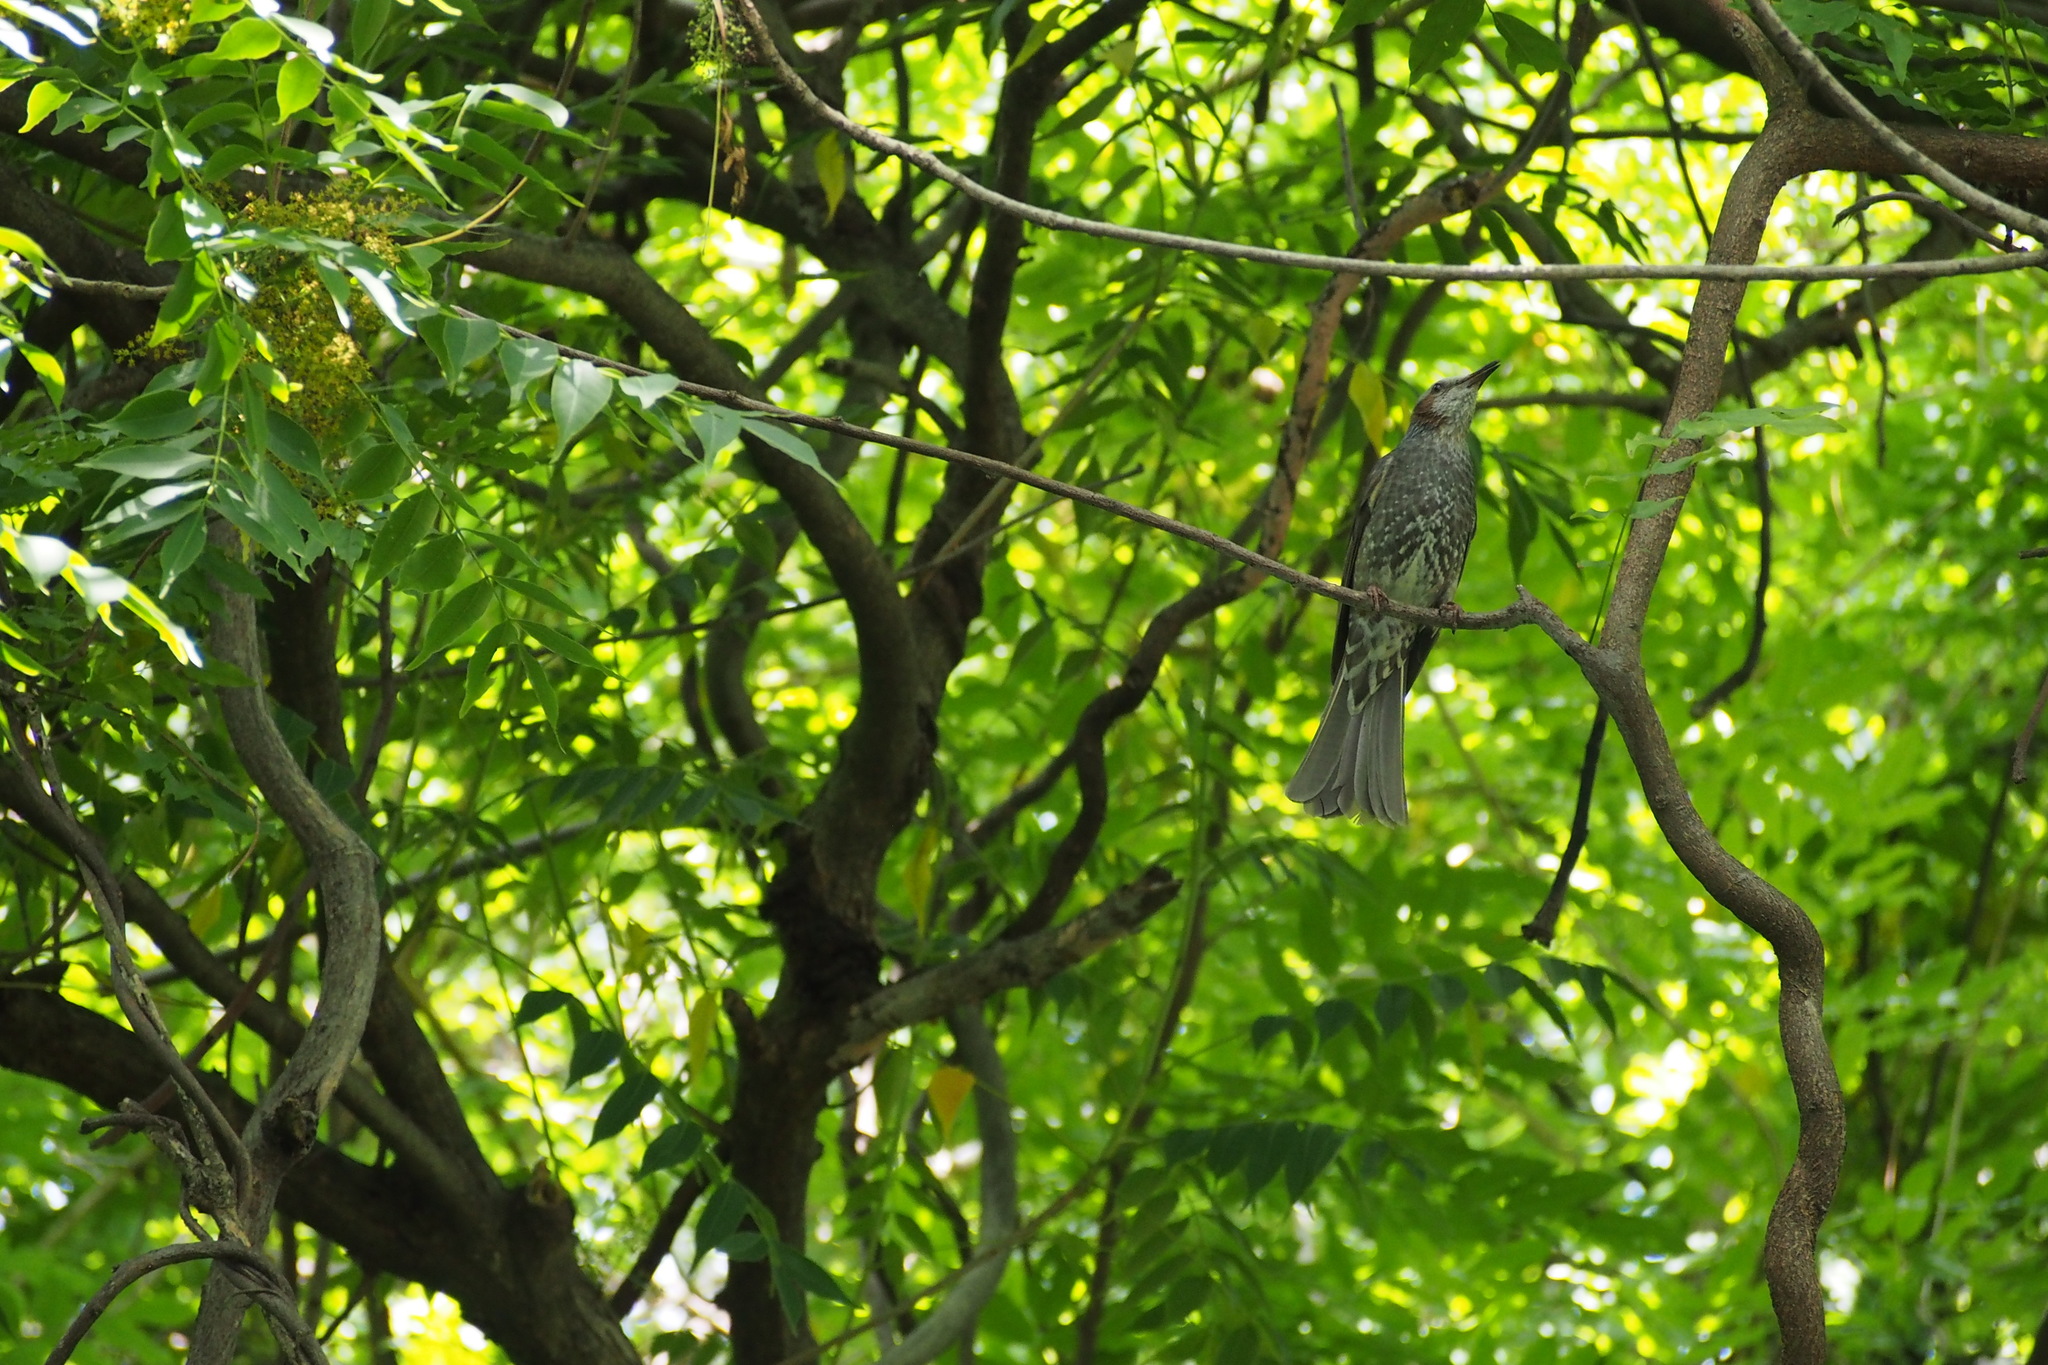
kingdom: Animalia
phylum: Chordata
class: Aves
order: Passeriformes
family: Pycnonotidae
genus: Hypsipetes
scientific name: Hypsipetes amaurotis
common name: Brown-eared bulbul
